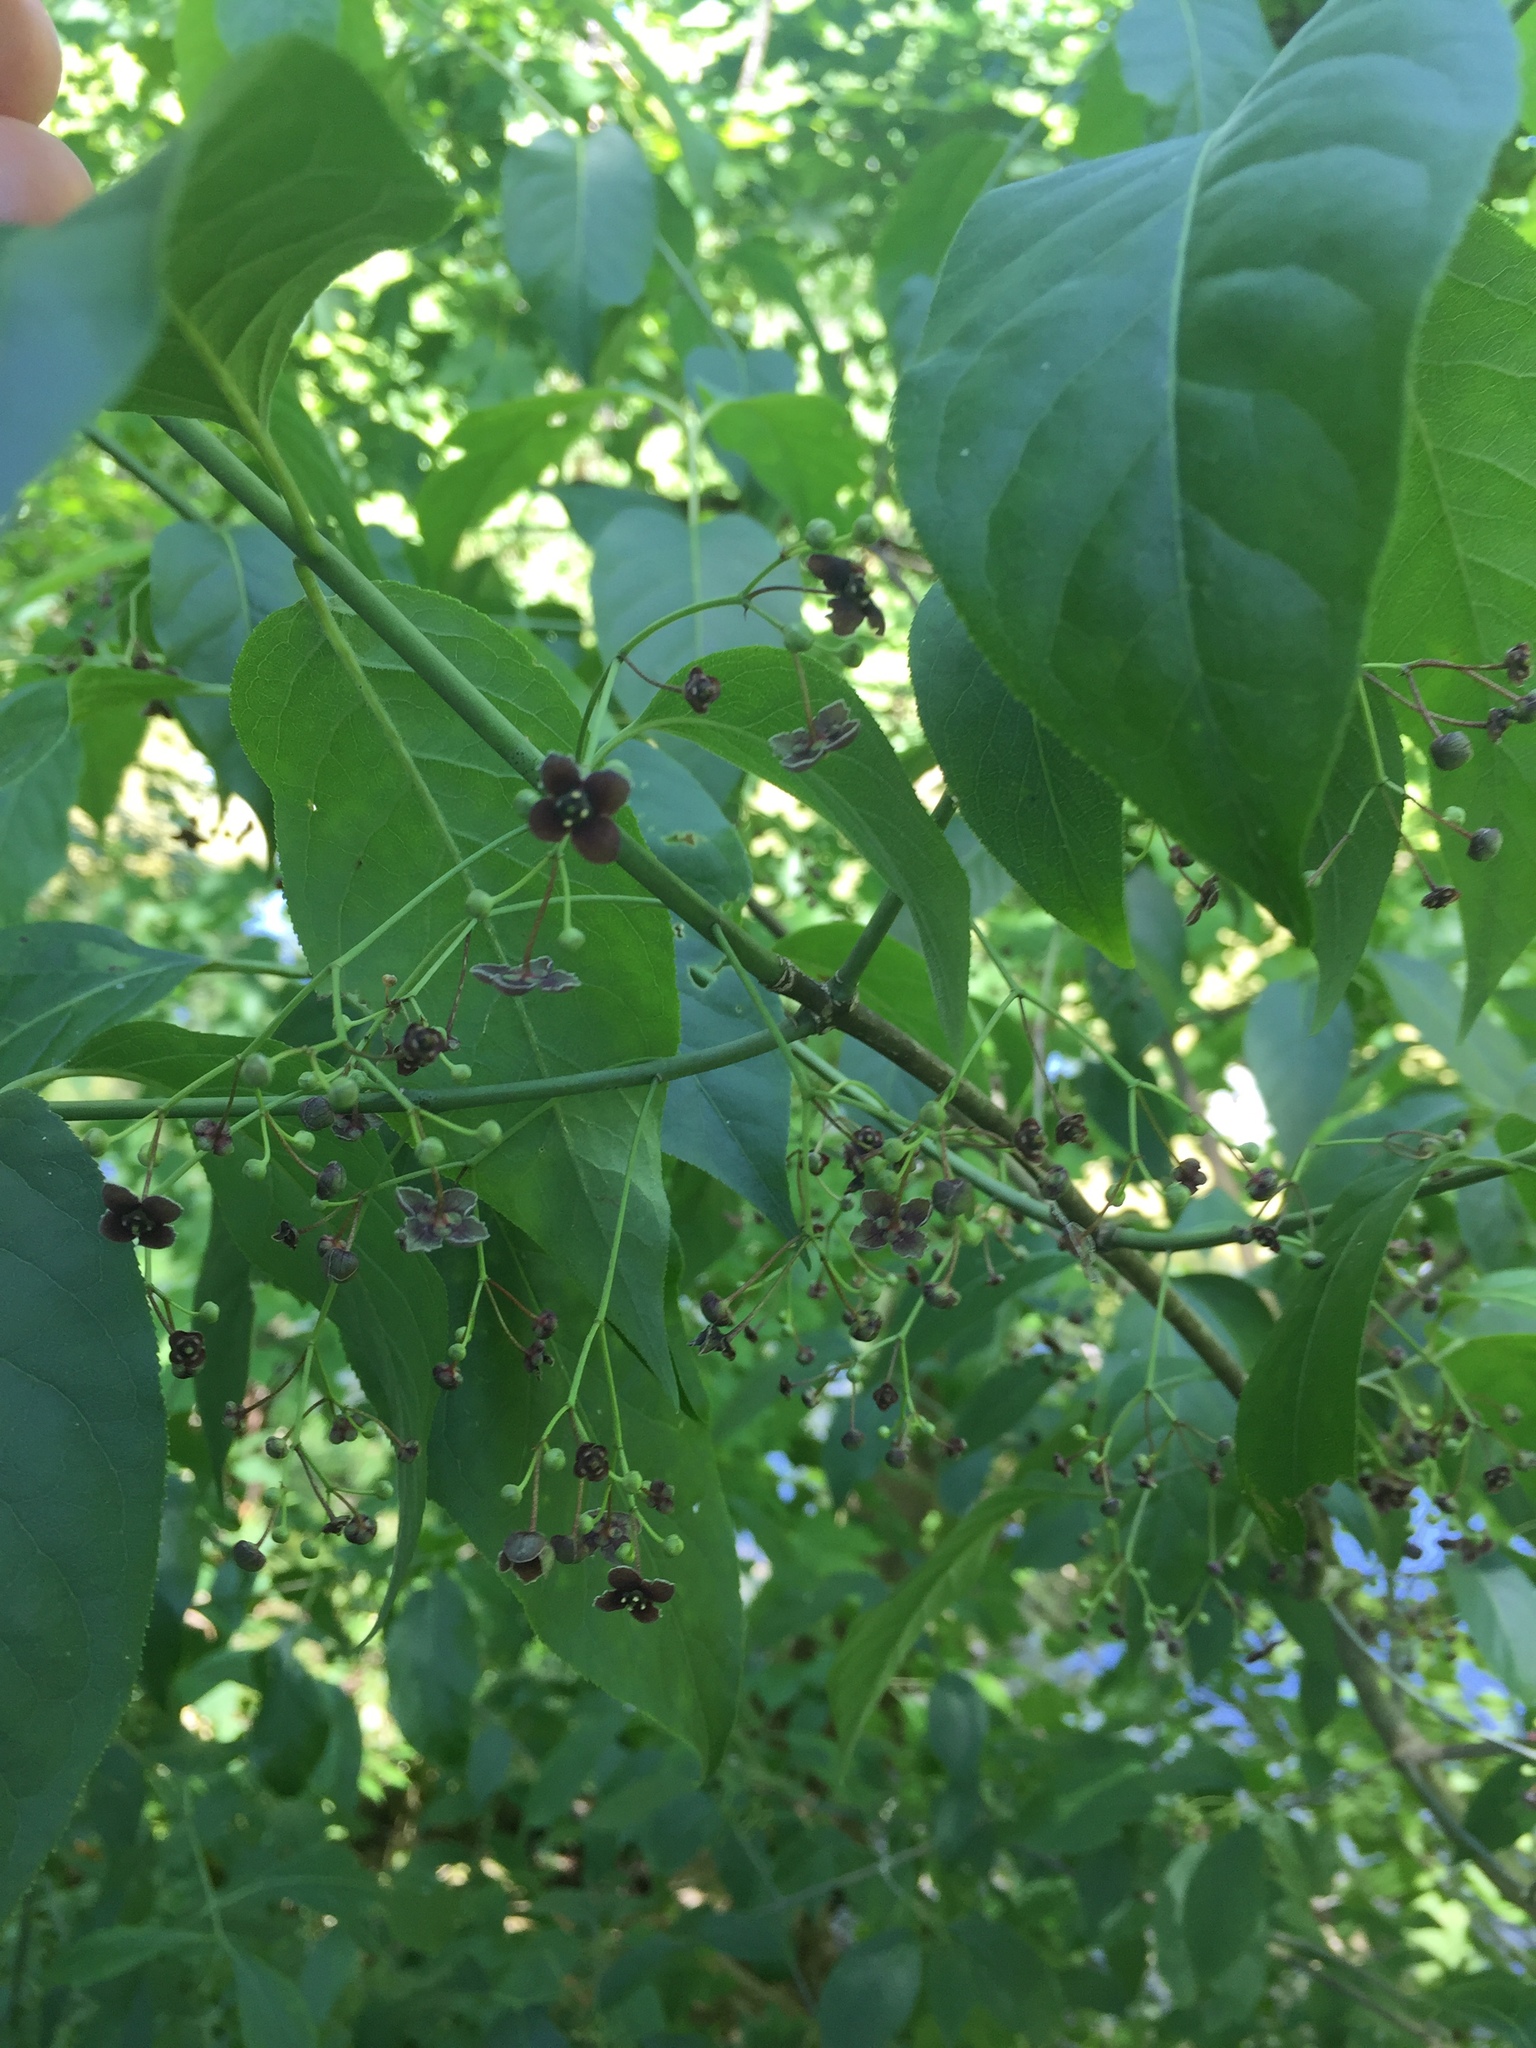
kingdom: Plantae
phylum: Tracheophyta
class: Magnoliopsida
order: Celastrales
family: Celastraceae
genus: Euonymus
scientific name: Euonymus atropurpureus
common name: Eastern wahoo
